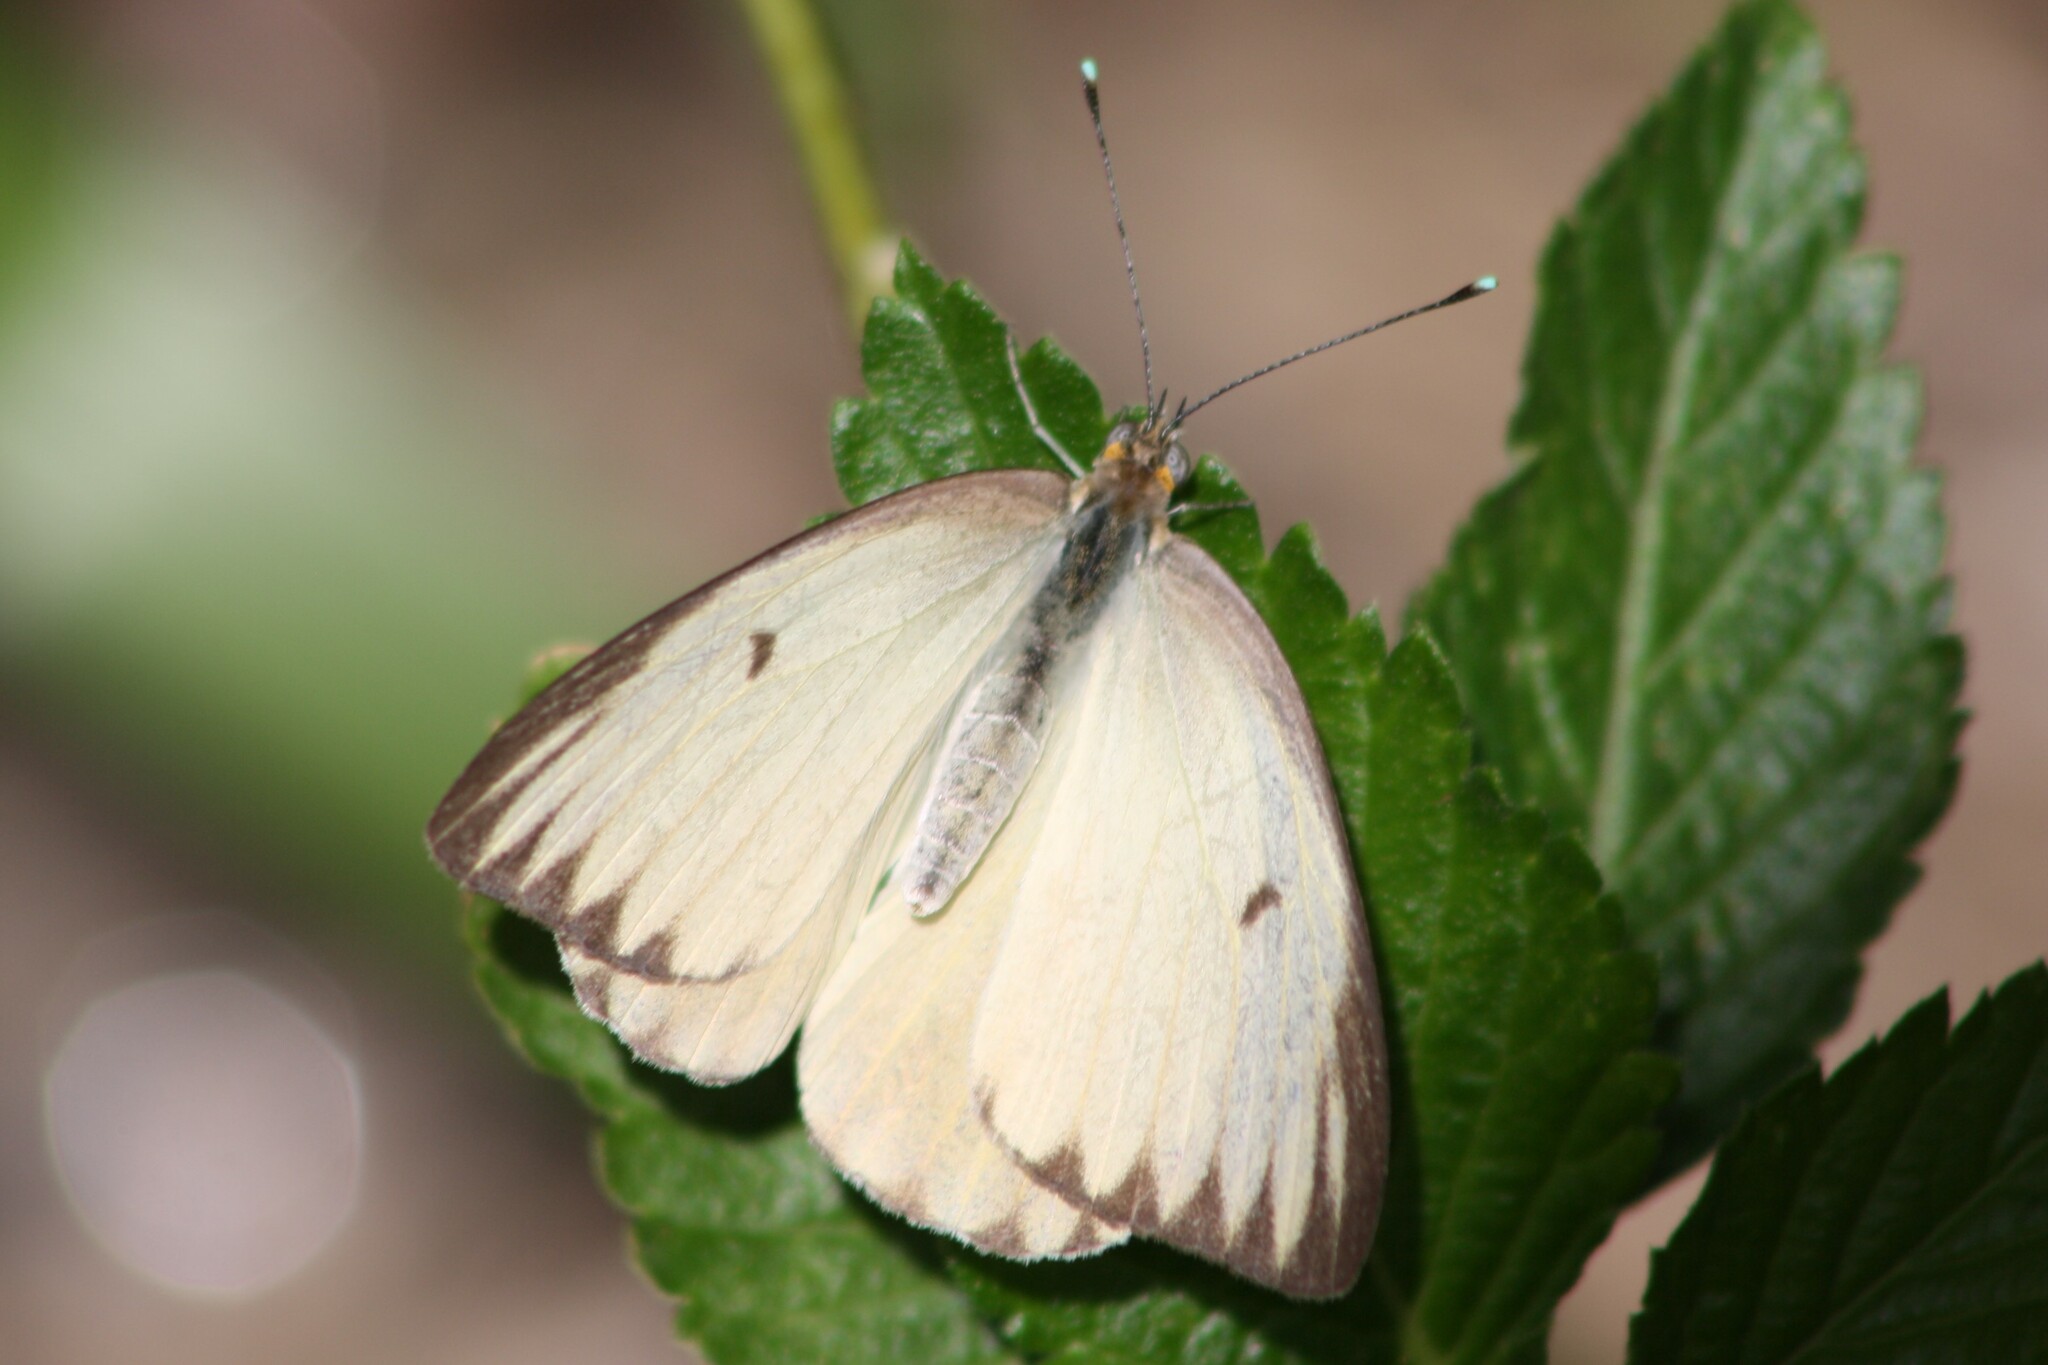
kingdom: Animalia
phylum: Arthropoda
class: Insecta
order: Lepidoptera
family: Pieridae
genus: Ascia
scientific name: Ascia monuste
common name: Great southern white
